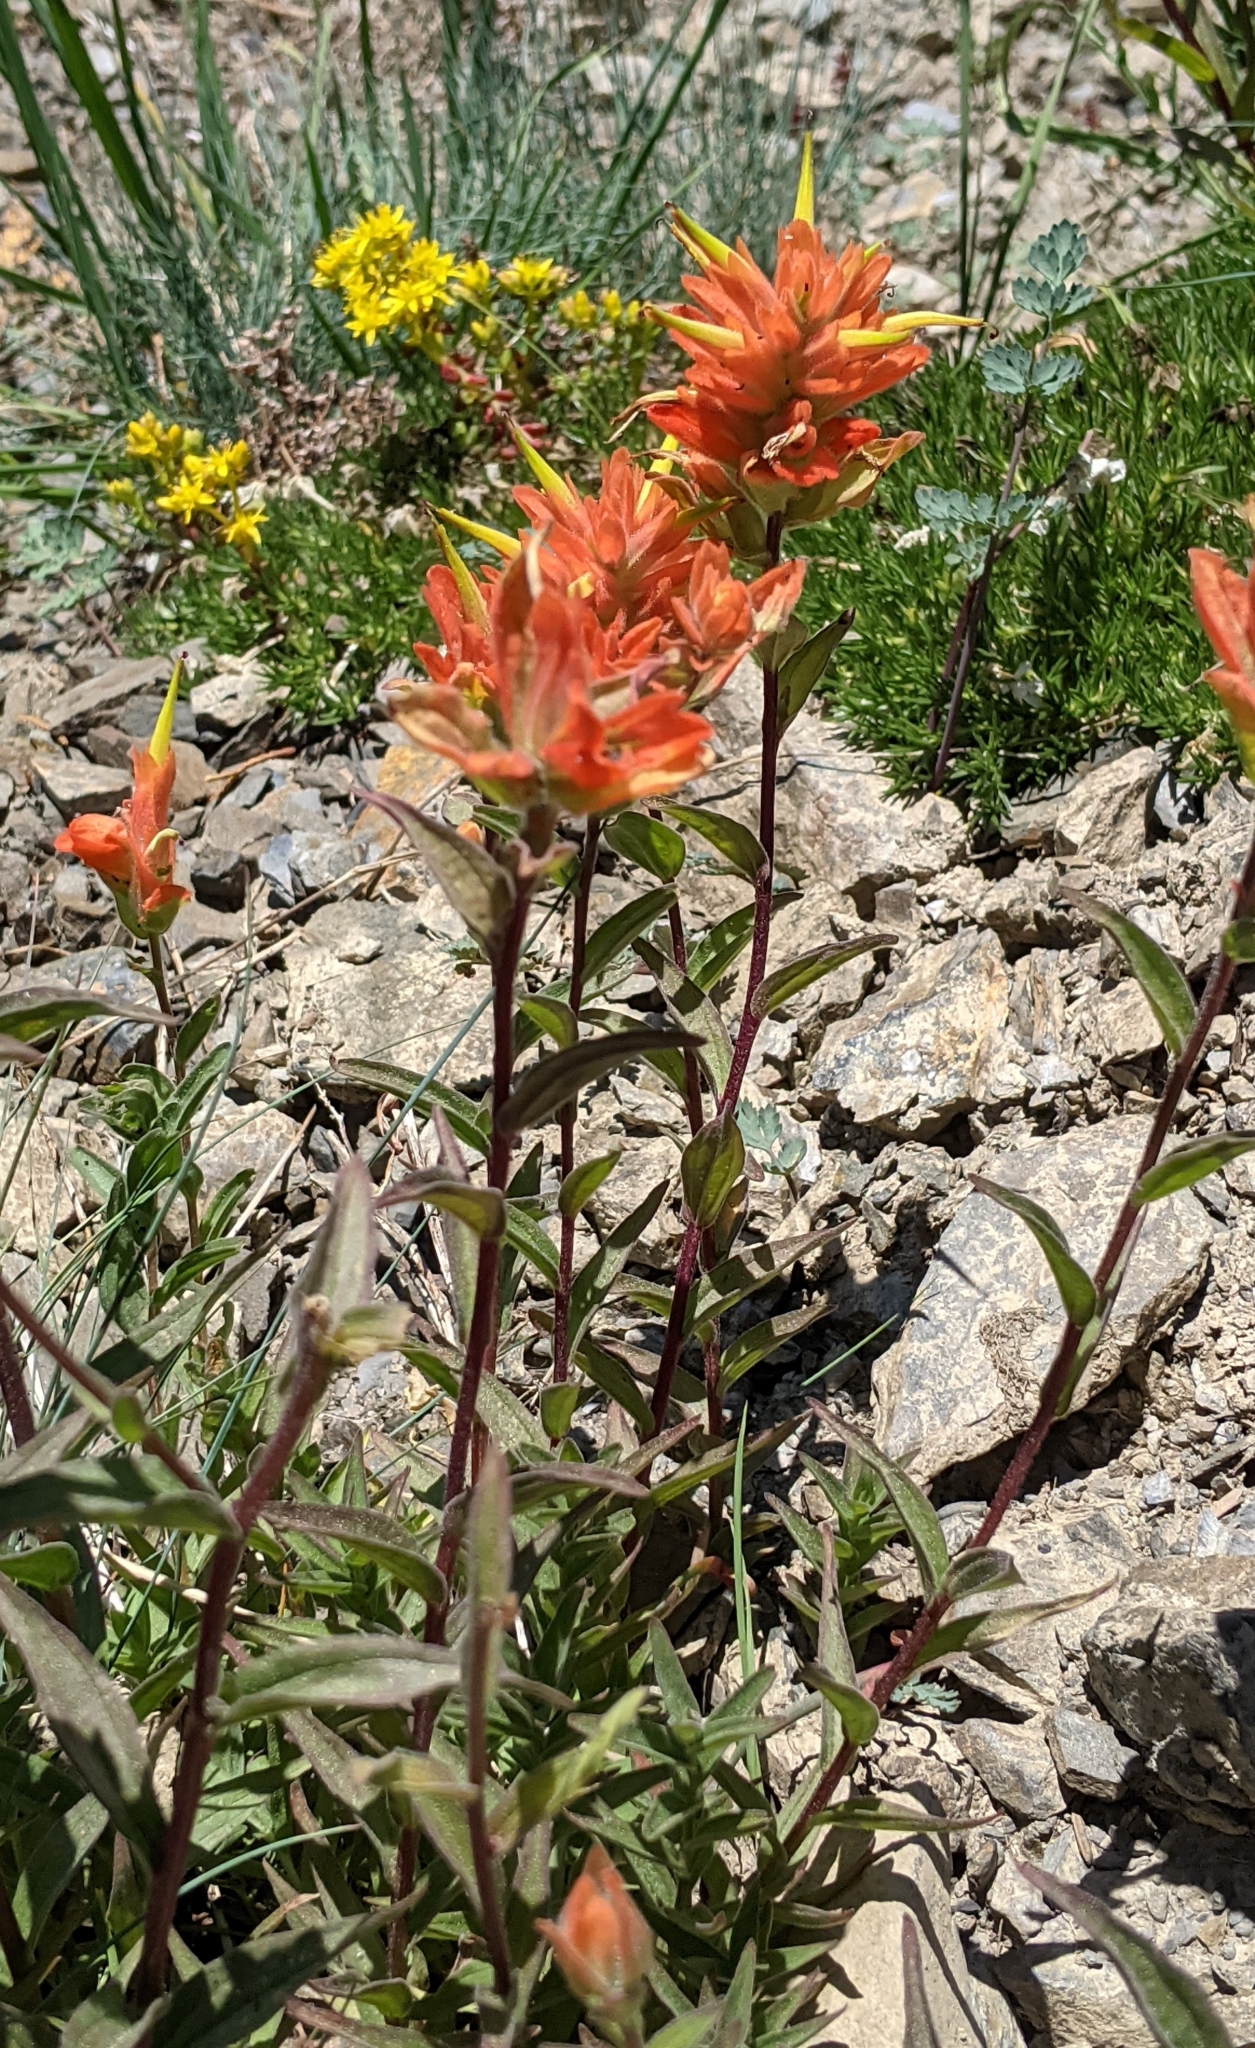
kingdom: Plantae
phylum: Tracheophyta
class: Magnoliopsida
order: Lamiales
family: Orobanchaceae
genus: Castilleja
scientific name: Castilleja miniata
